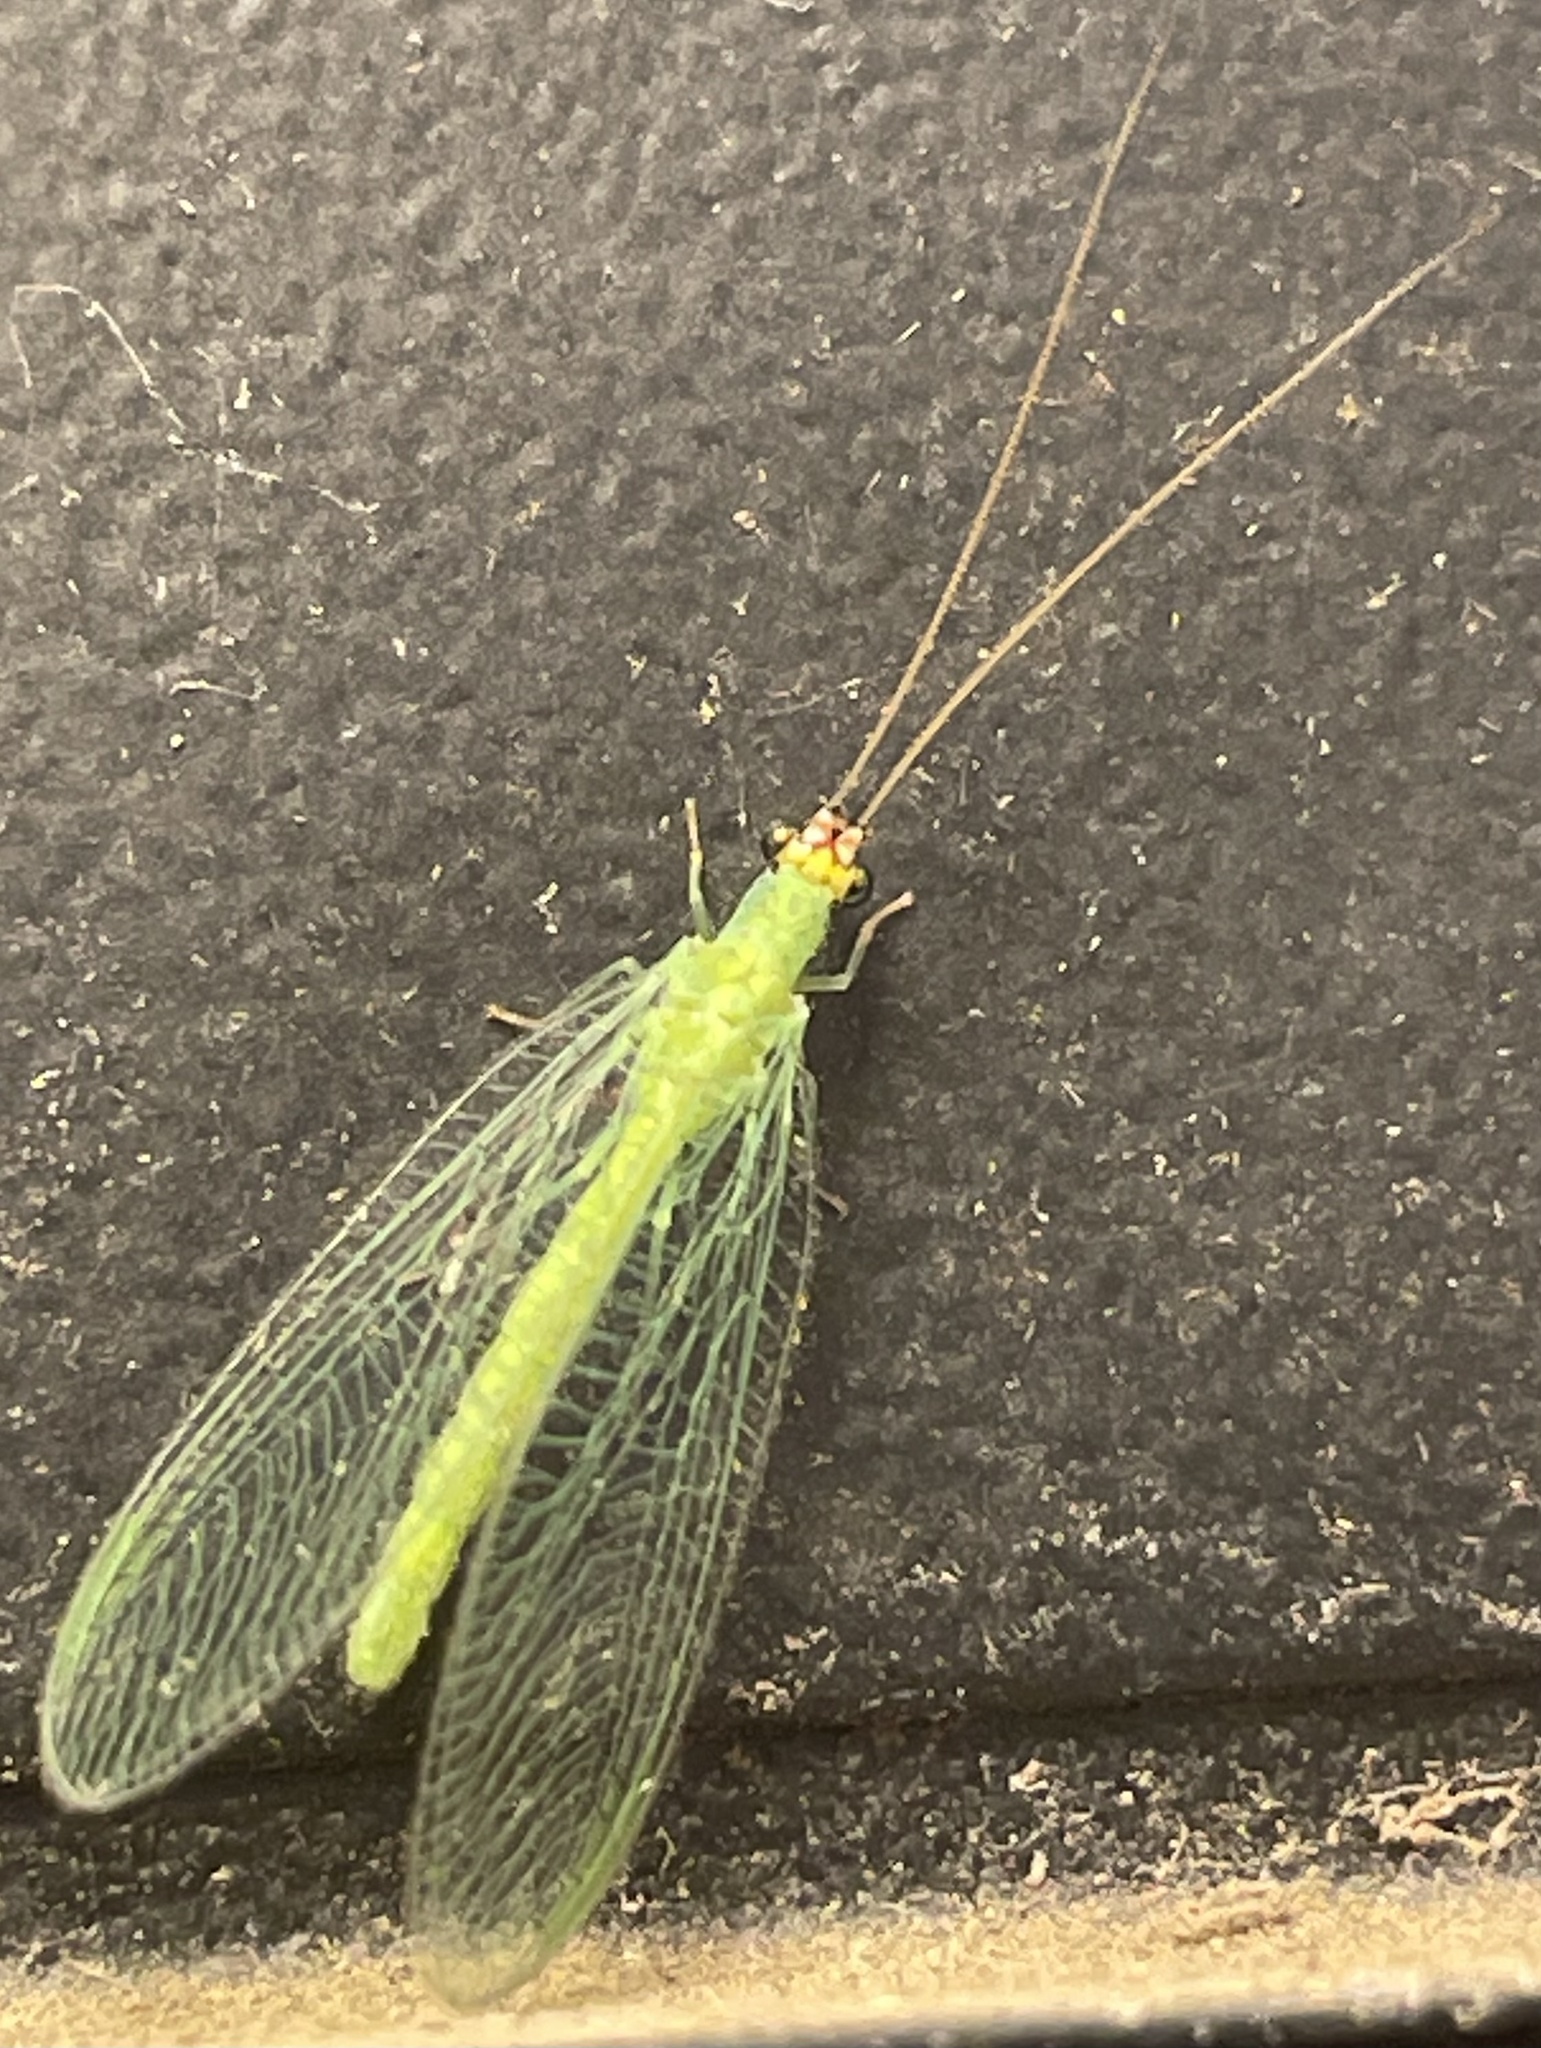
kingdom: Animalia
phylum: Arthropoda
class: Insecta
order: Neuroptera
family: Chrysopidae
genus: Chrysopa
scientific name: Chrysopa oculata
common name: Golden-eyed lacewing
